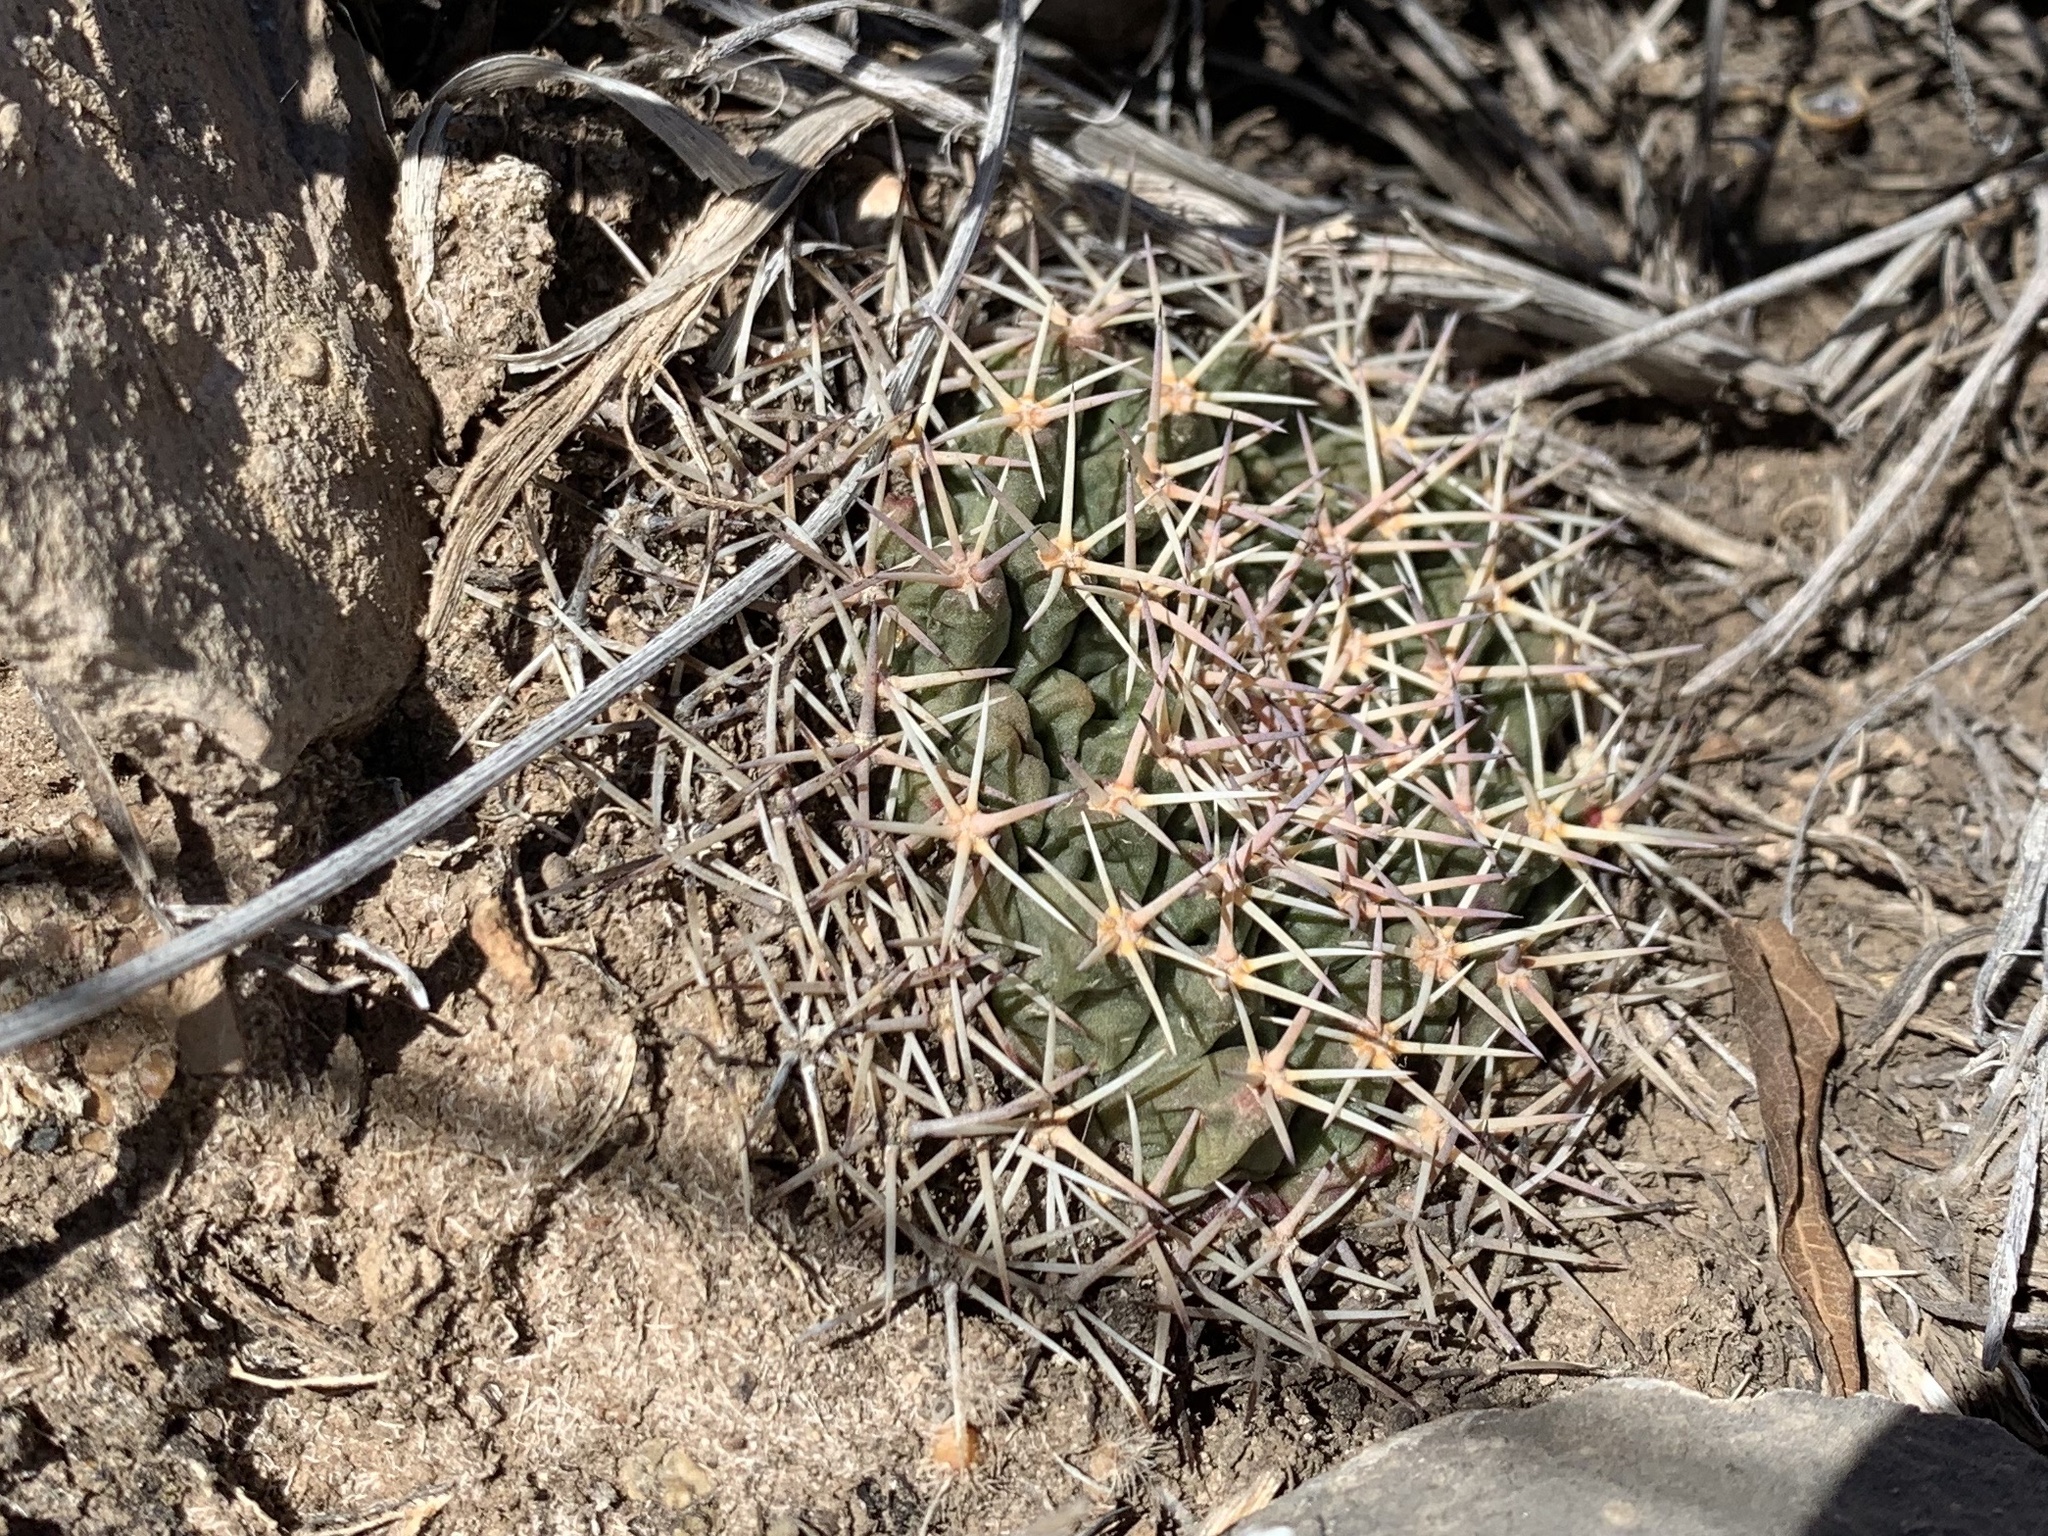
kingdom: Plantae
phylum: Tracheophyta
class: Magnoliopsida
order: Caryophyllales
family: Cactaceae
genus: Mammillaria
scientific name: Mammillaria heyderi
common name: Little nipple cactus
